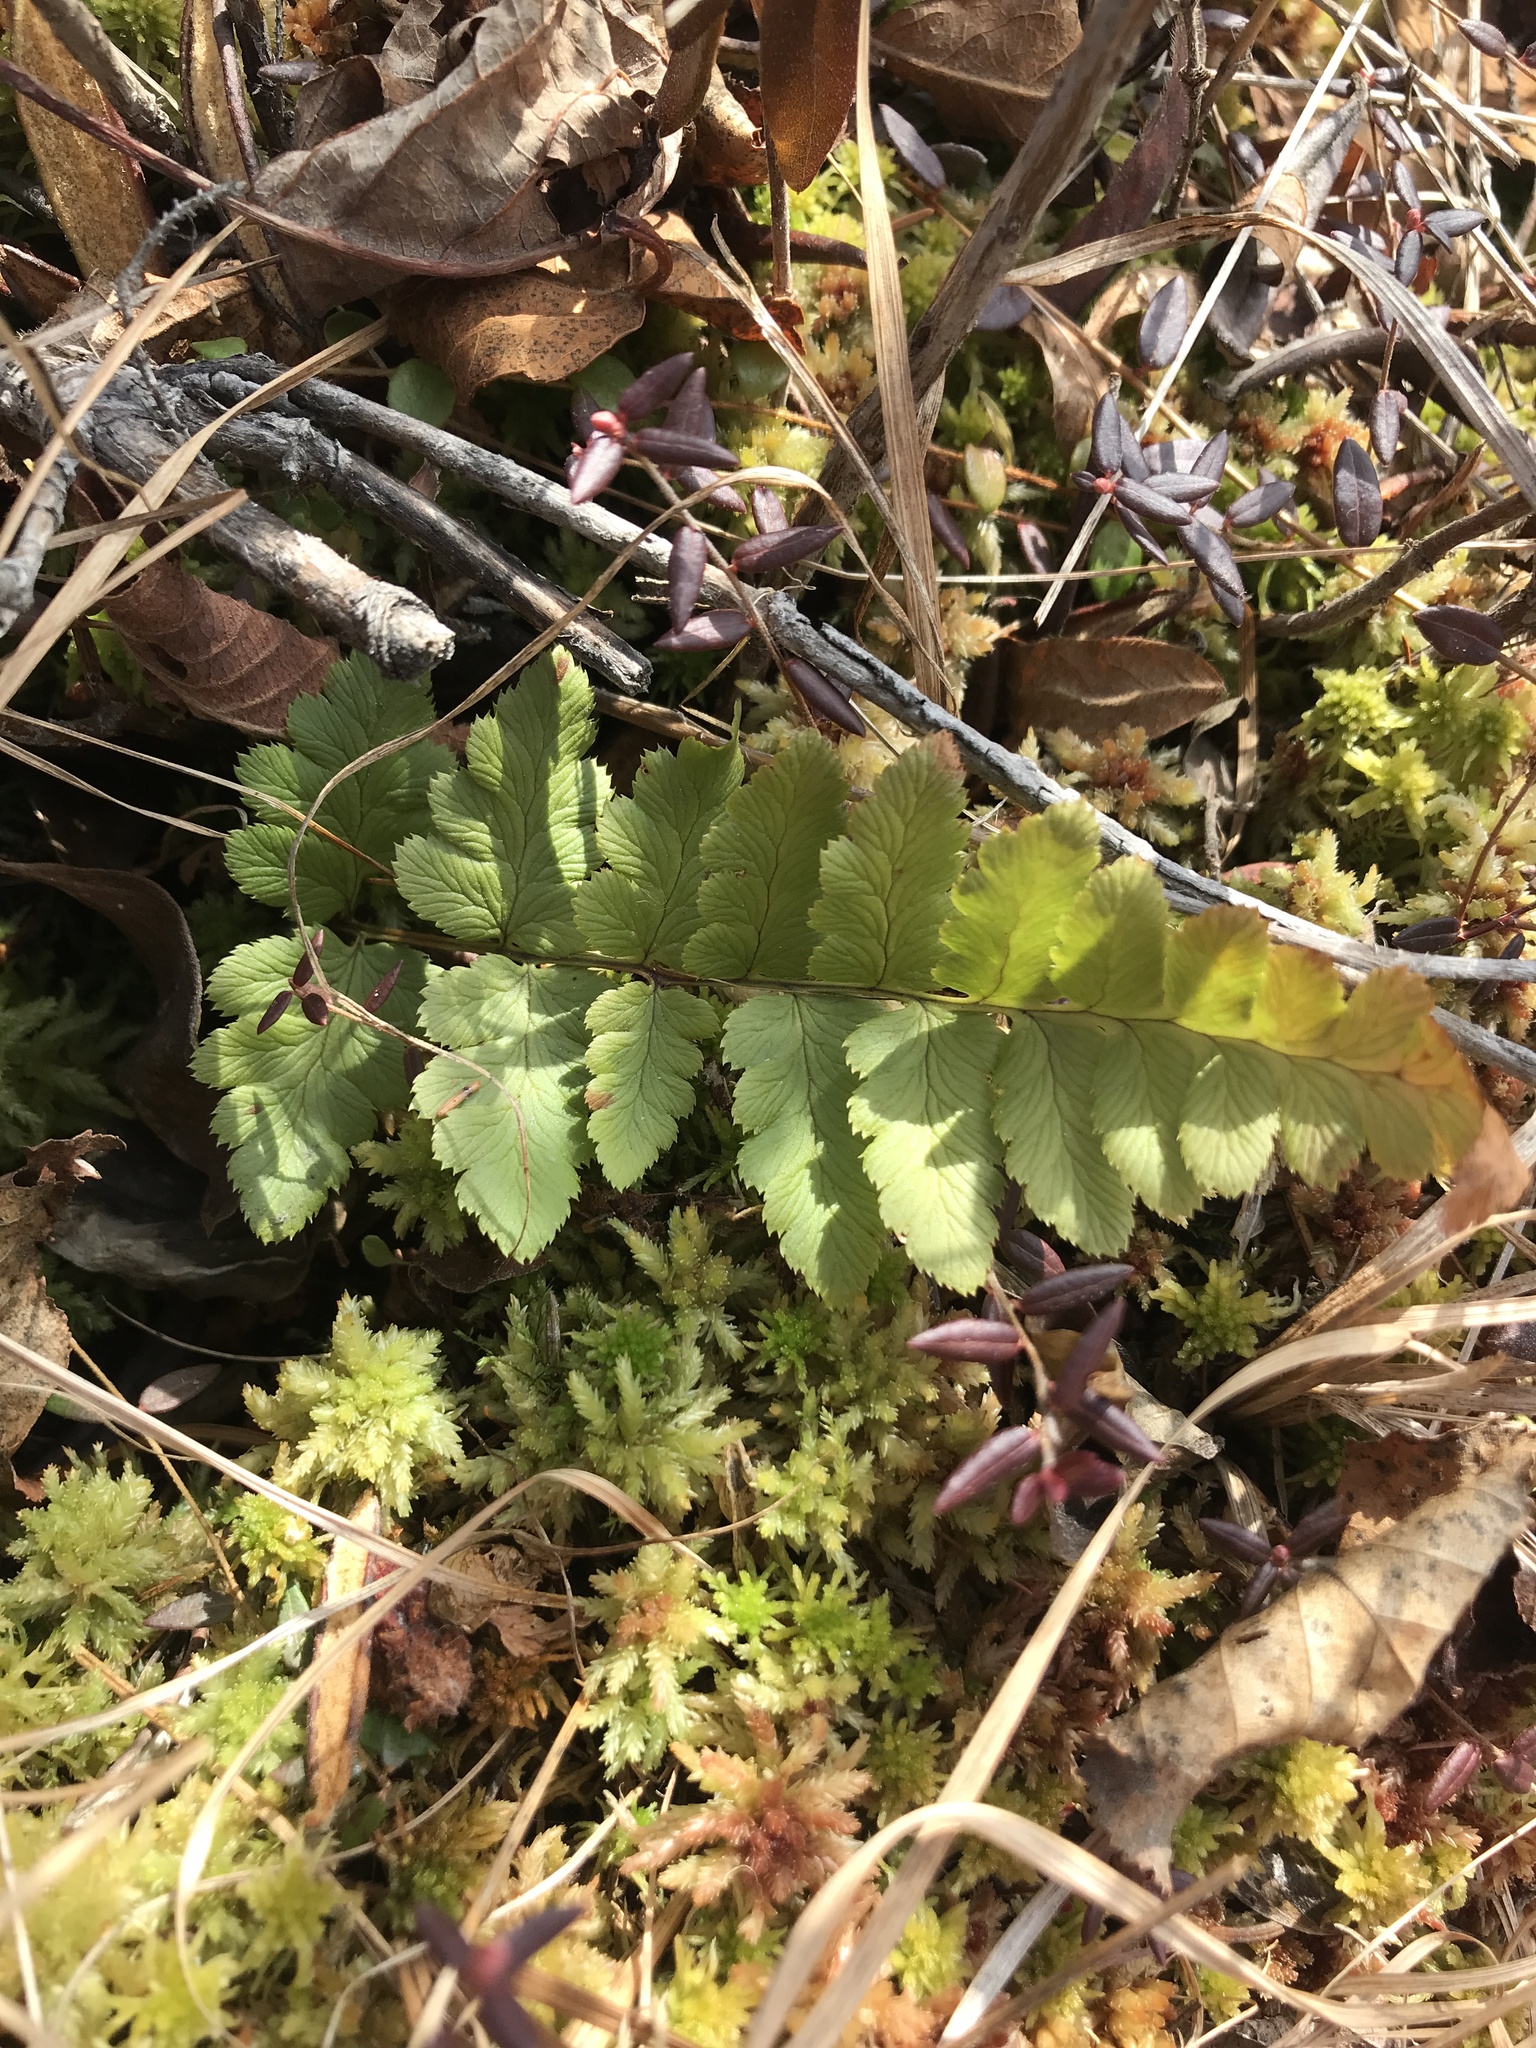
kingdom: Plantae
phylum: Tracheophyta
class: Polypodiopsida
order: Polypodiales
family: Dryopteridaceae
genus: Dryopteris
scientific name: Dryopteris cristata
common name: Crested wood fern
